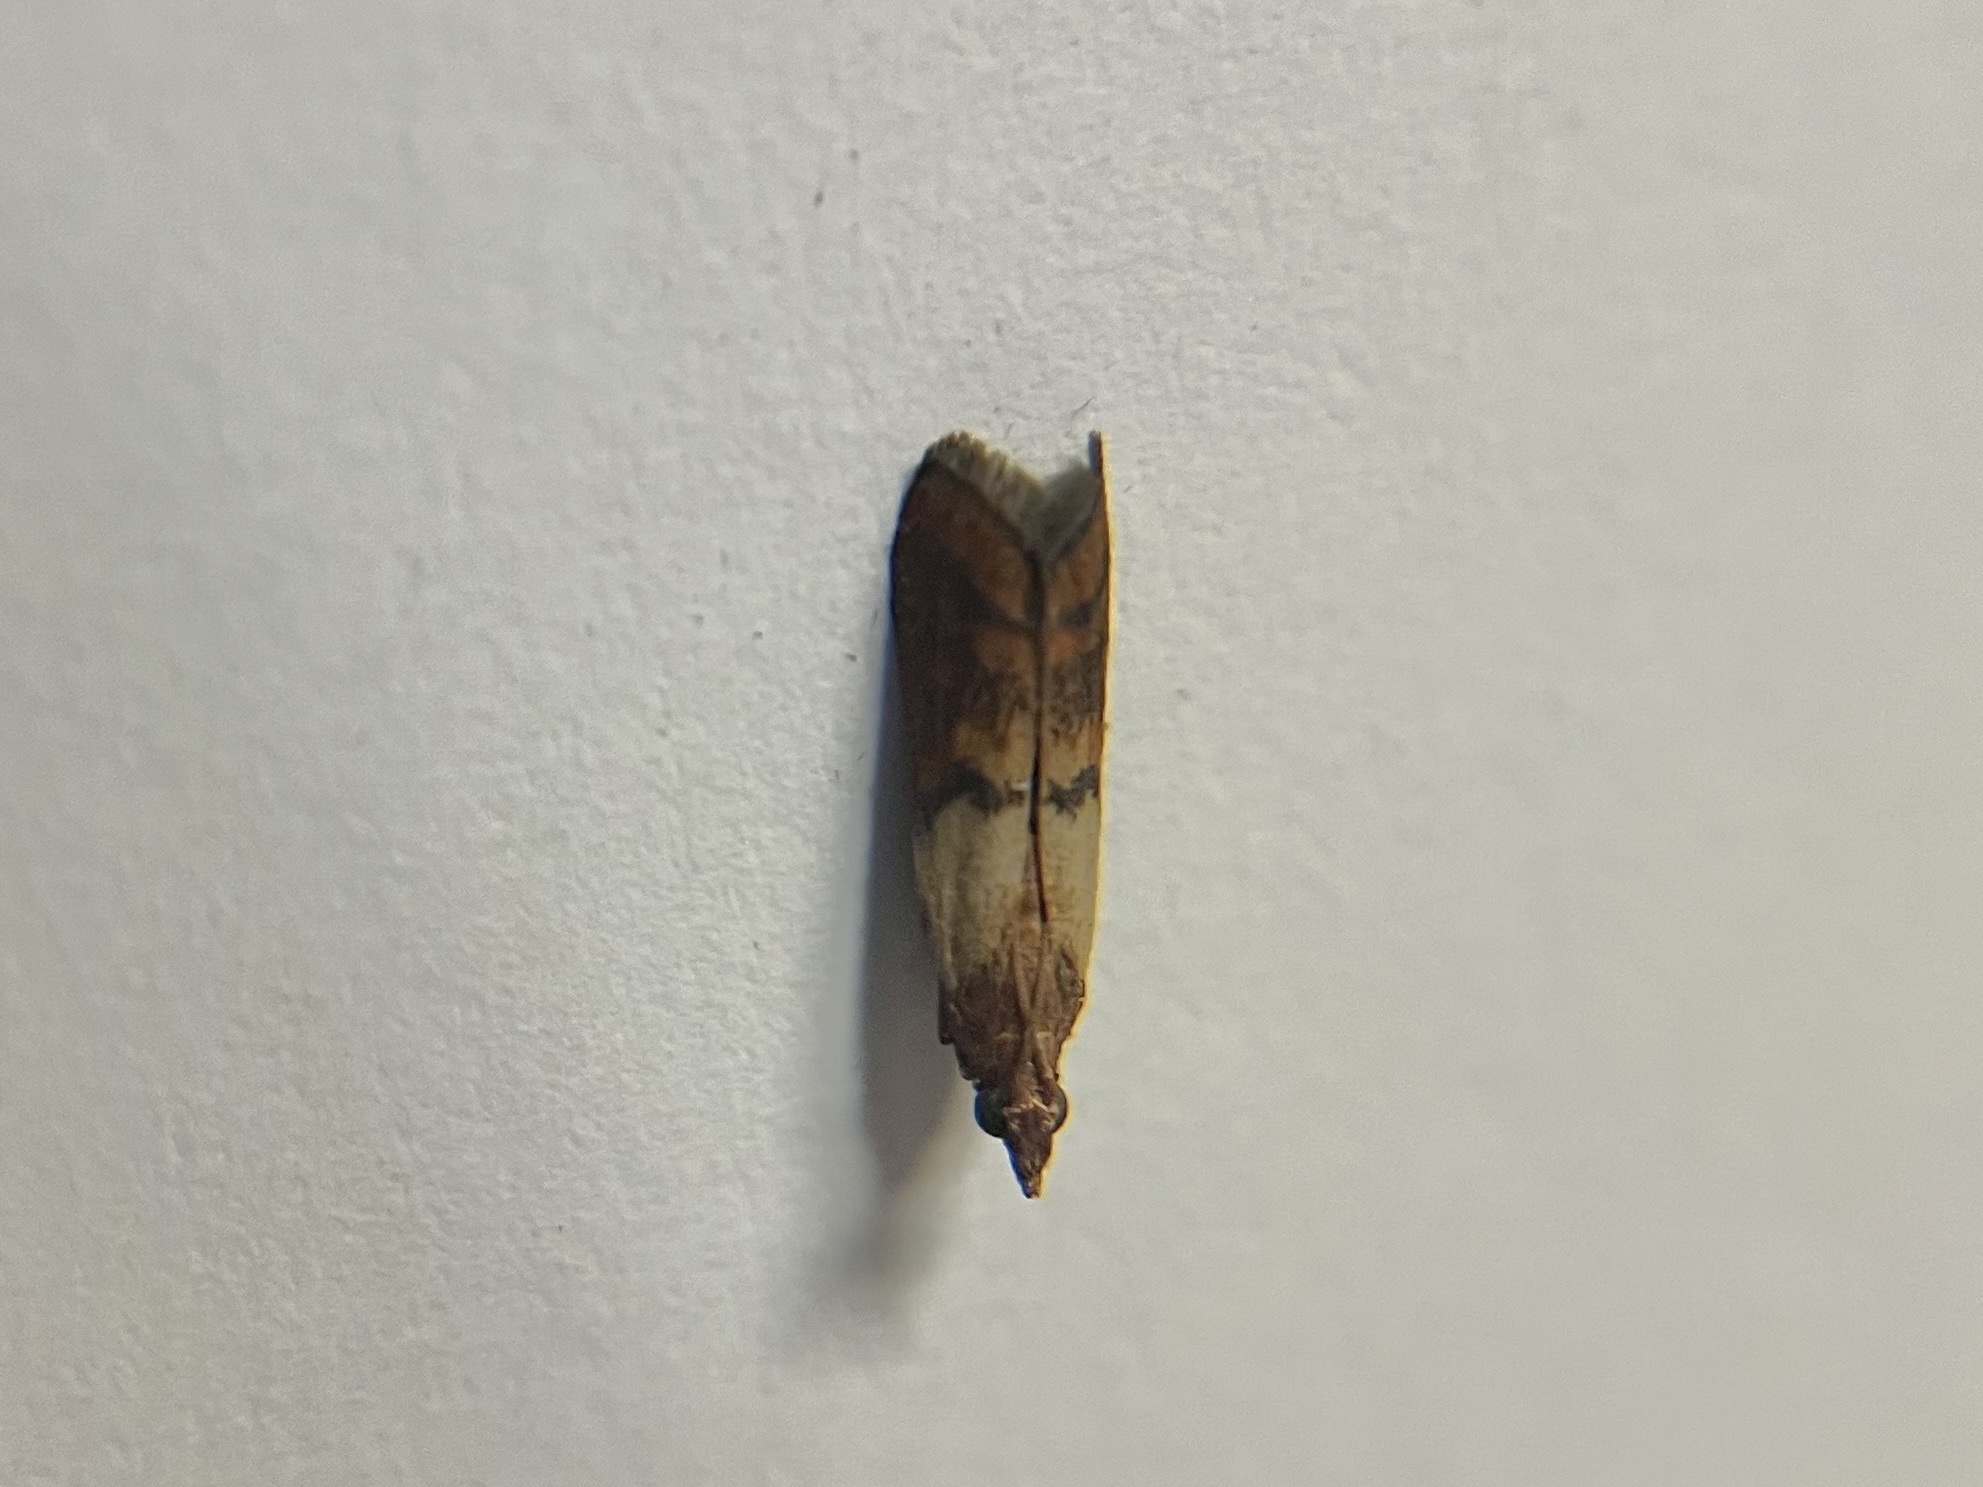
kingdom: Animalia
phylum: Arthropoda
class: Insecta
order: Lepidoptera
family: Pyralidae
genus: Plodia
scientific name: Plodia interpunctella
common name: Indian meal moth
